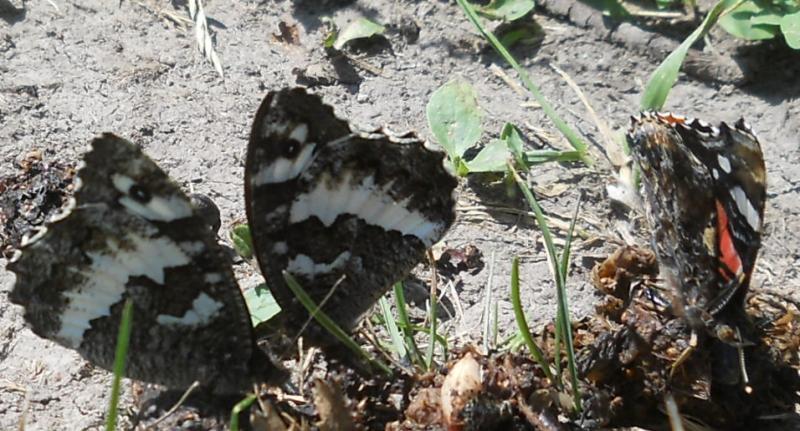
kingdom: Animalia
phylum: Arthropoda
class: Insecta
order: Lepidoptera
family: Lycaenidae
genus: Loweia
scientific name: Loweia tityrus
